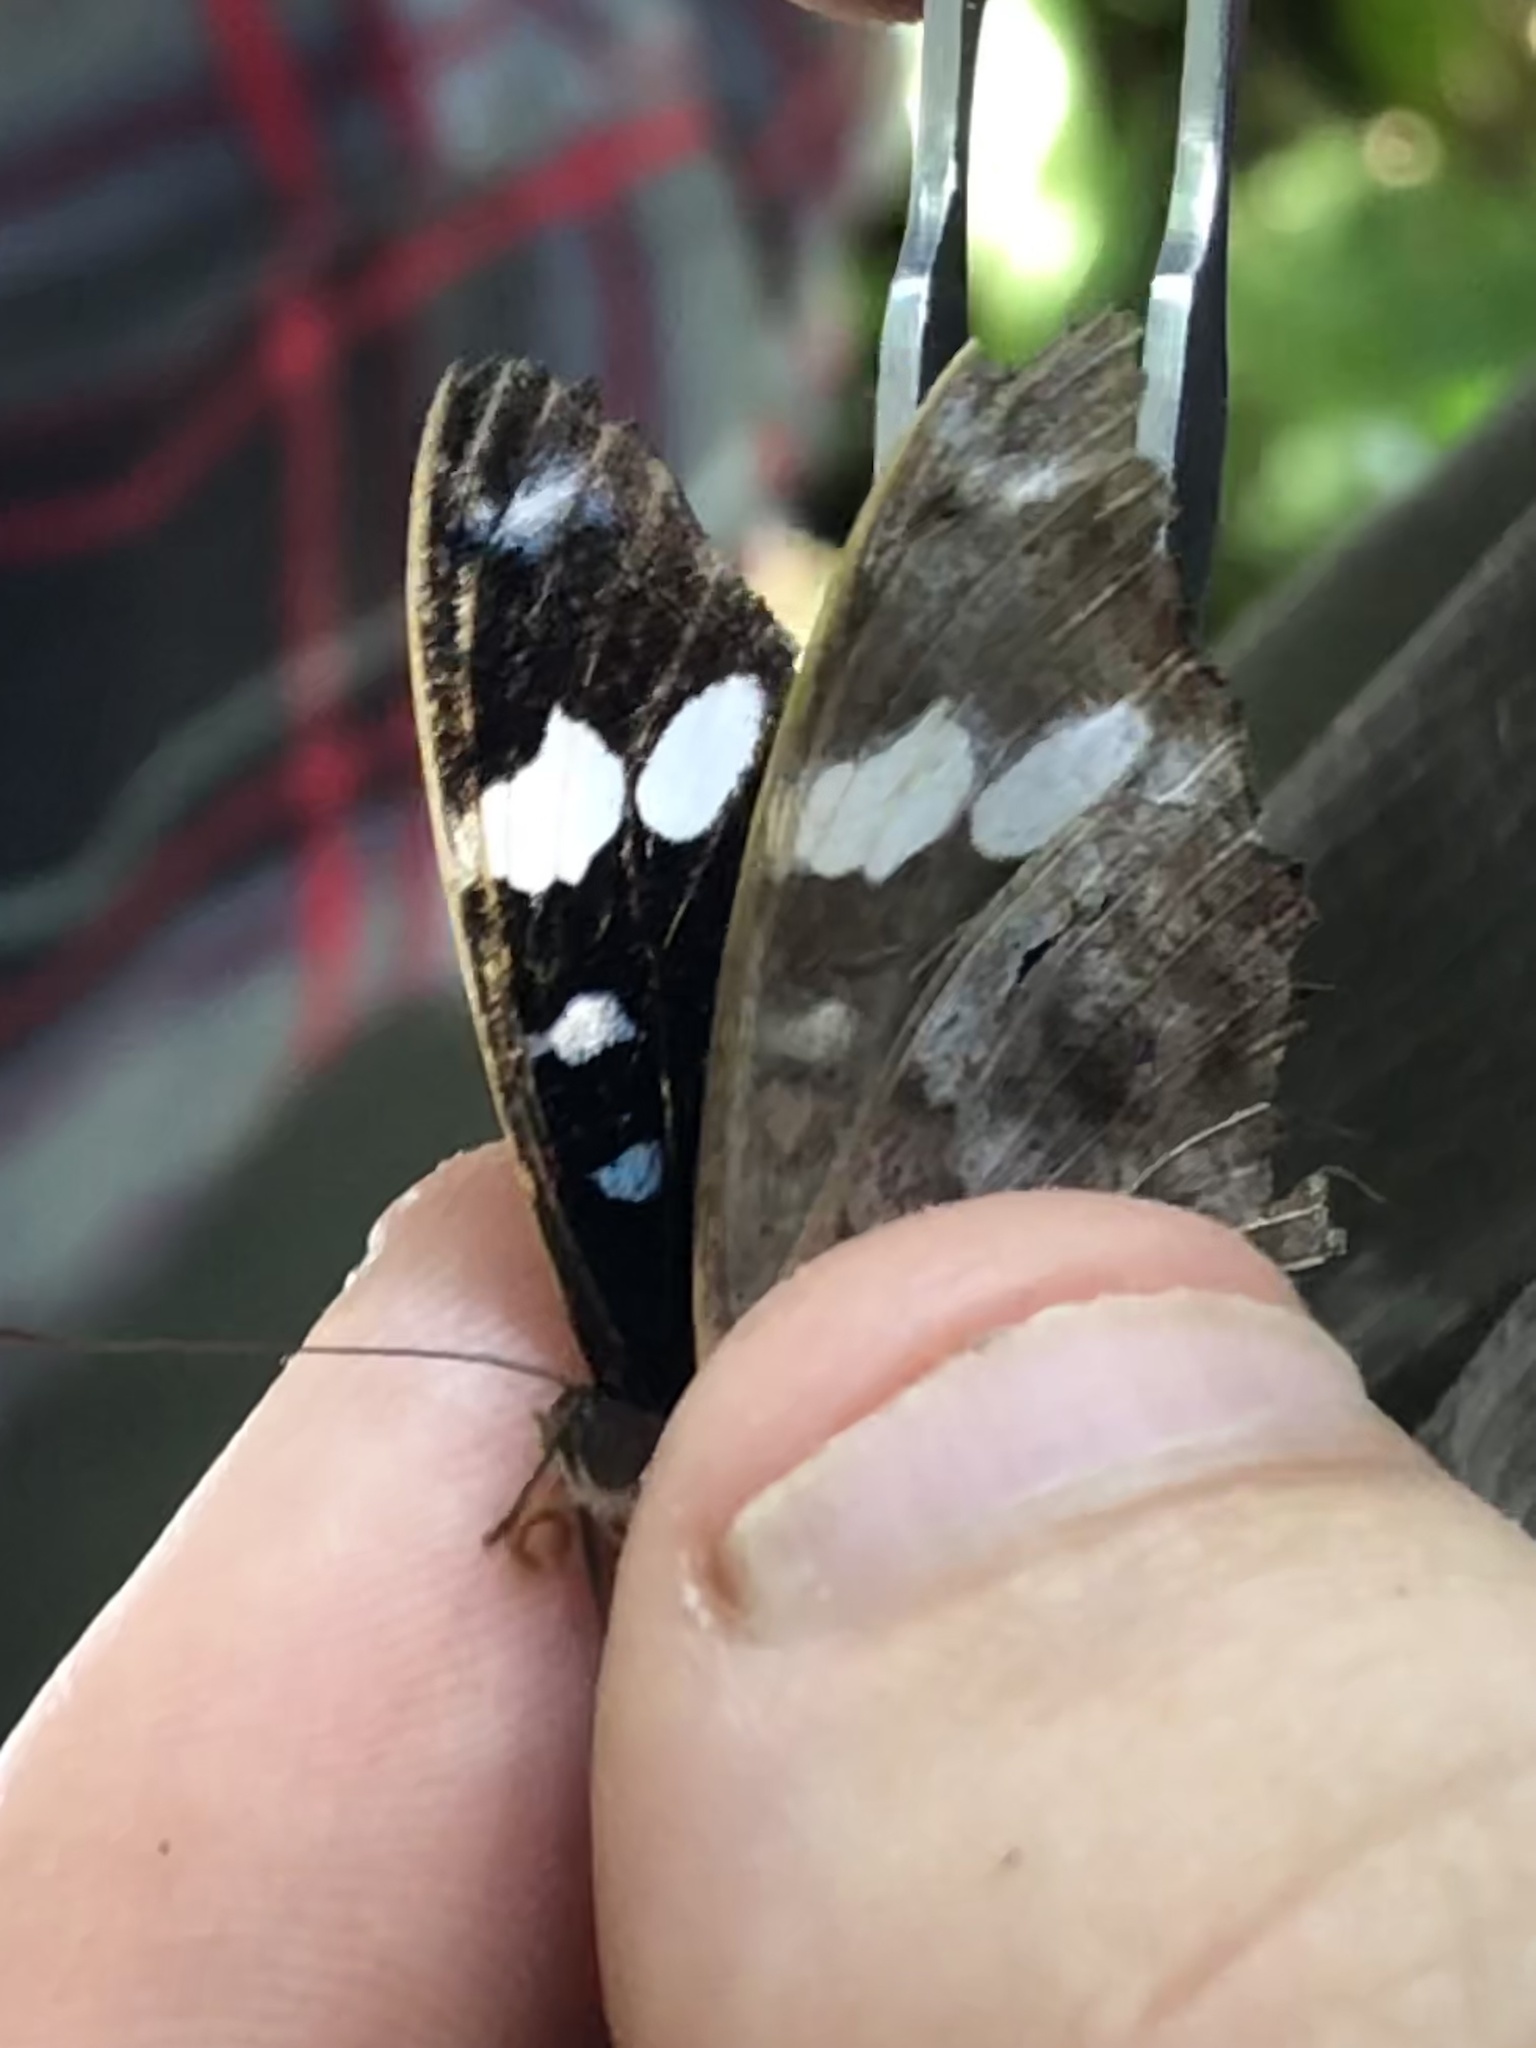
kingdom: Animalia
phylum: Arthropoda
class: Insecta
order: Lepidoptera
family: Nymphalidae
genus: Myscelia
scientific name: Myscelia capenas
